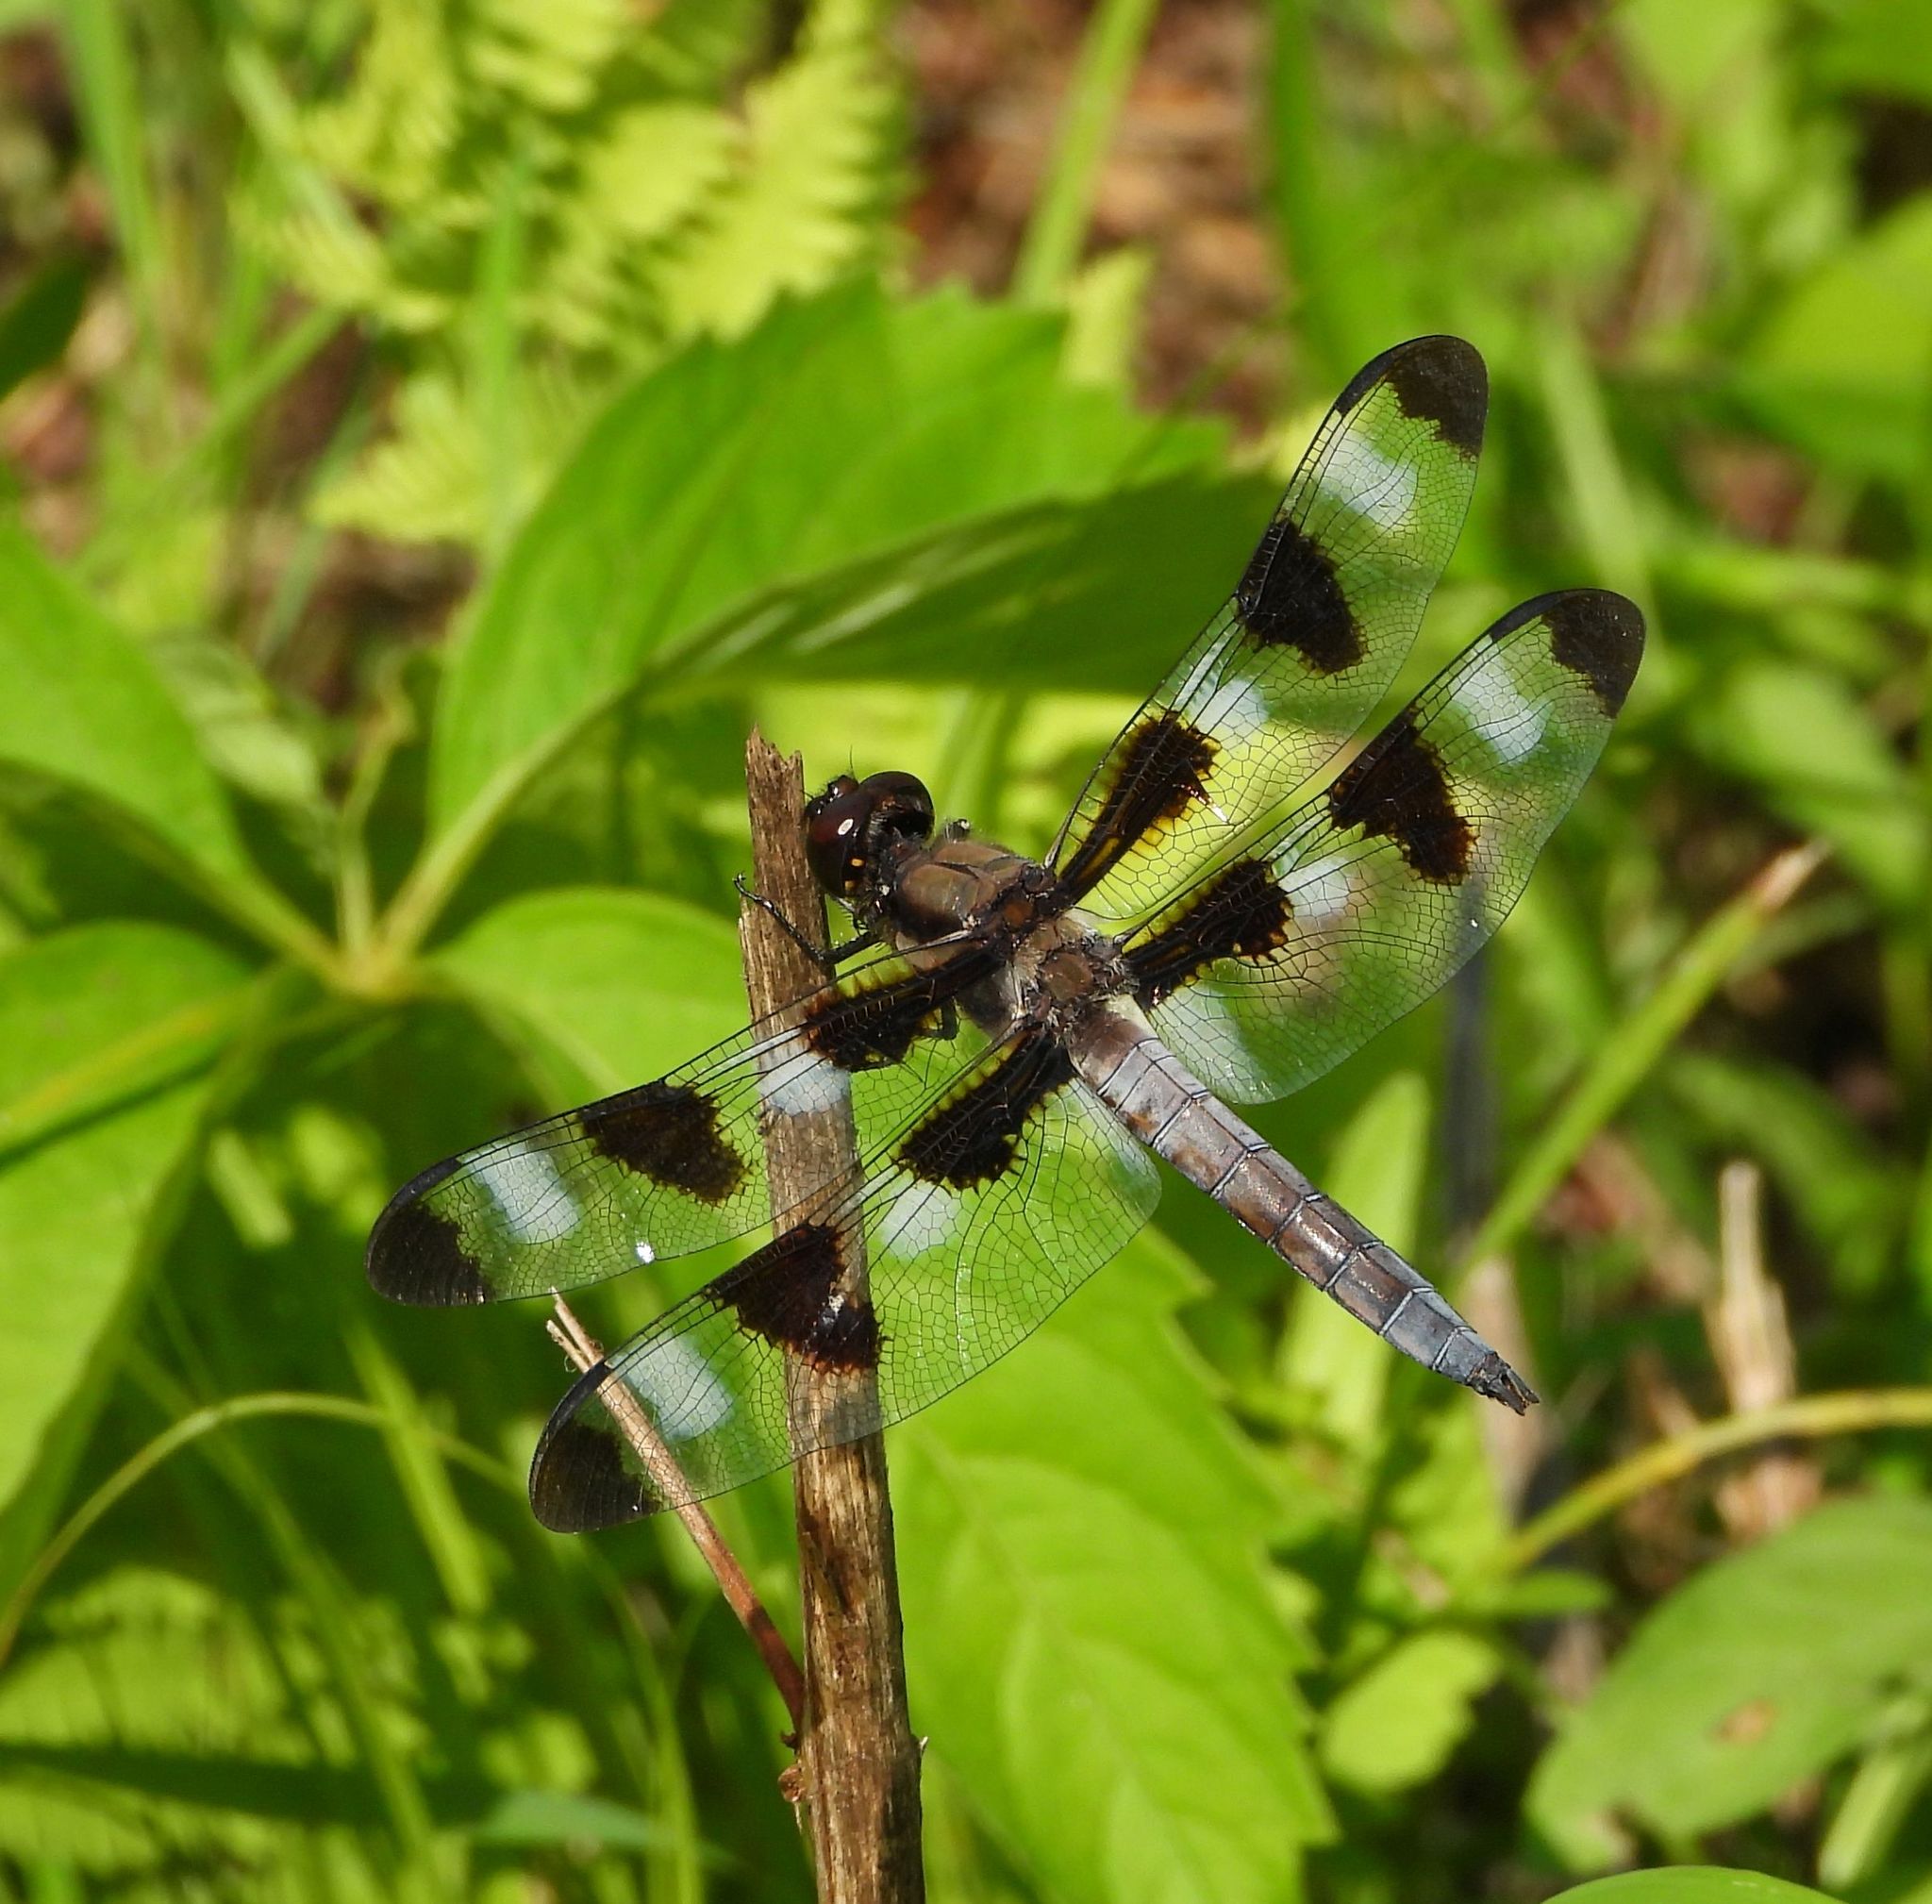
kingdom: Animalia
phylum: Arthropoda
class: Insecta
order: Odonata
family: Libellulidae
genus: Libellula
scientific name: Libellula pulchella
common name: Twelve-spotted skimmer
